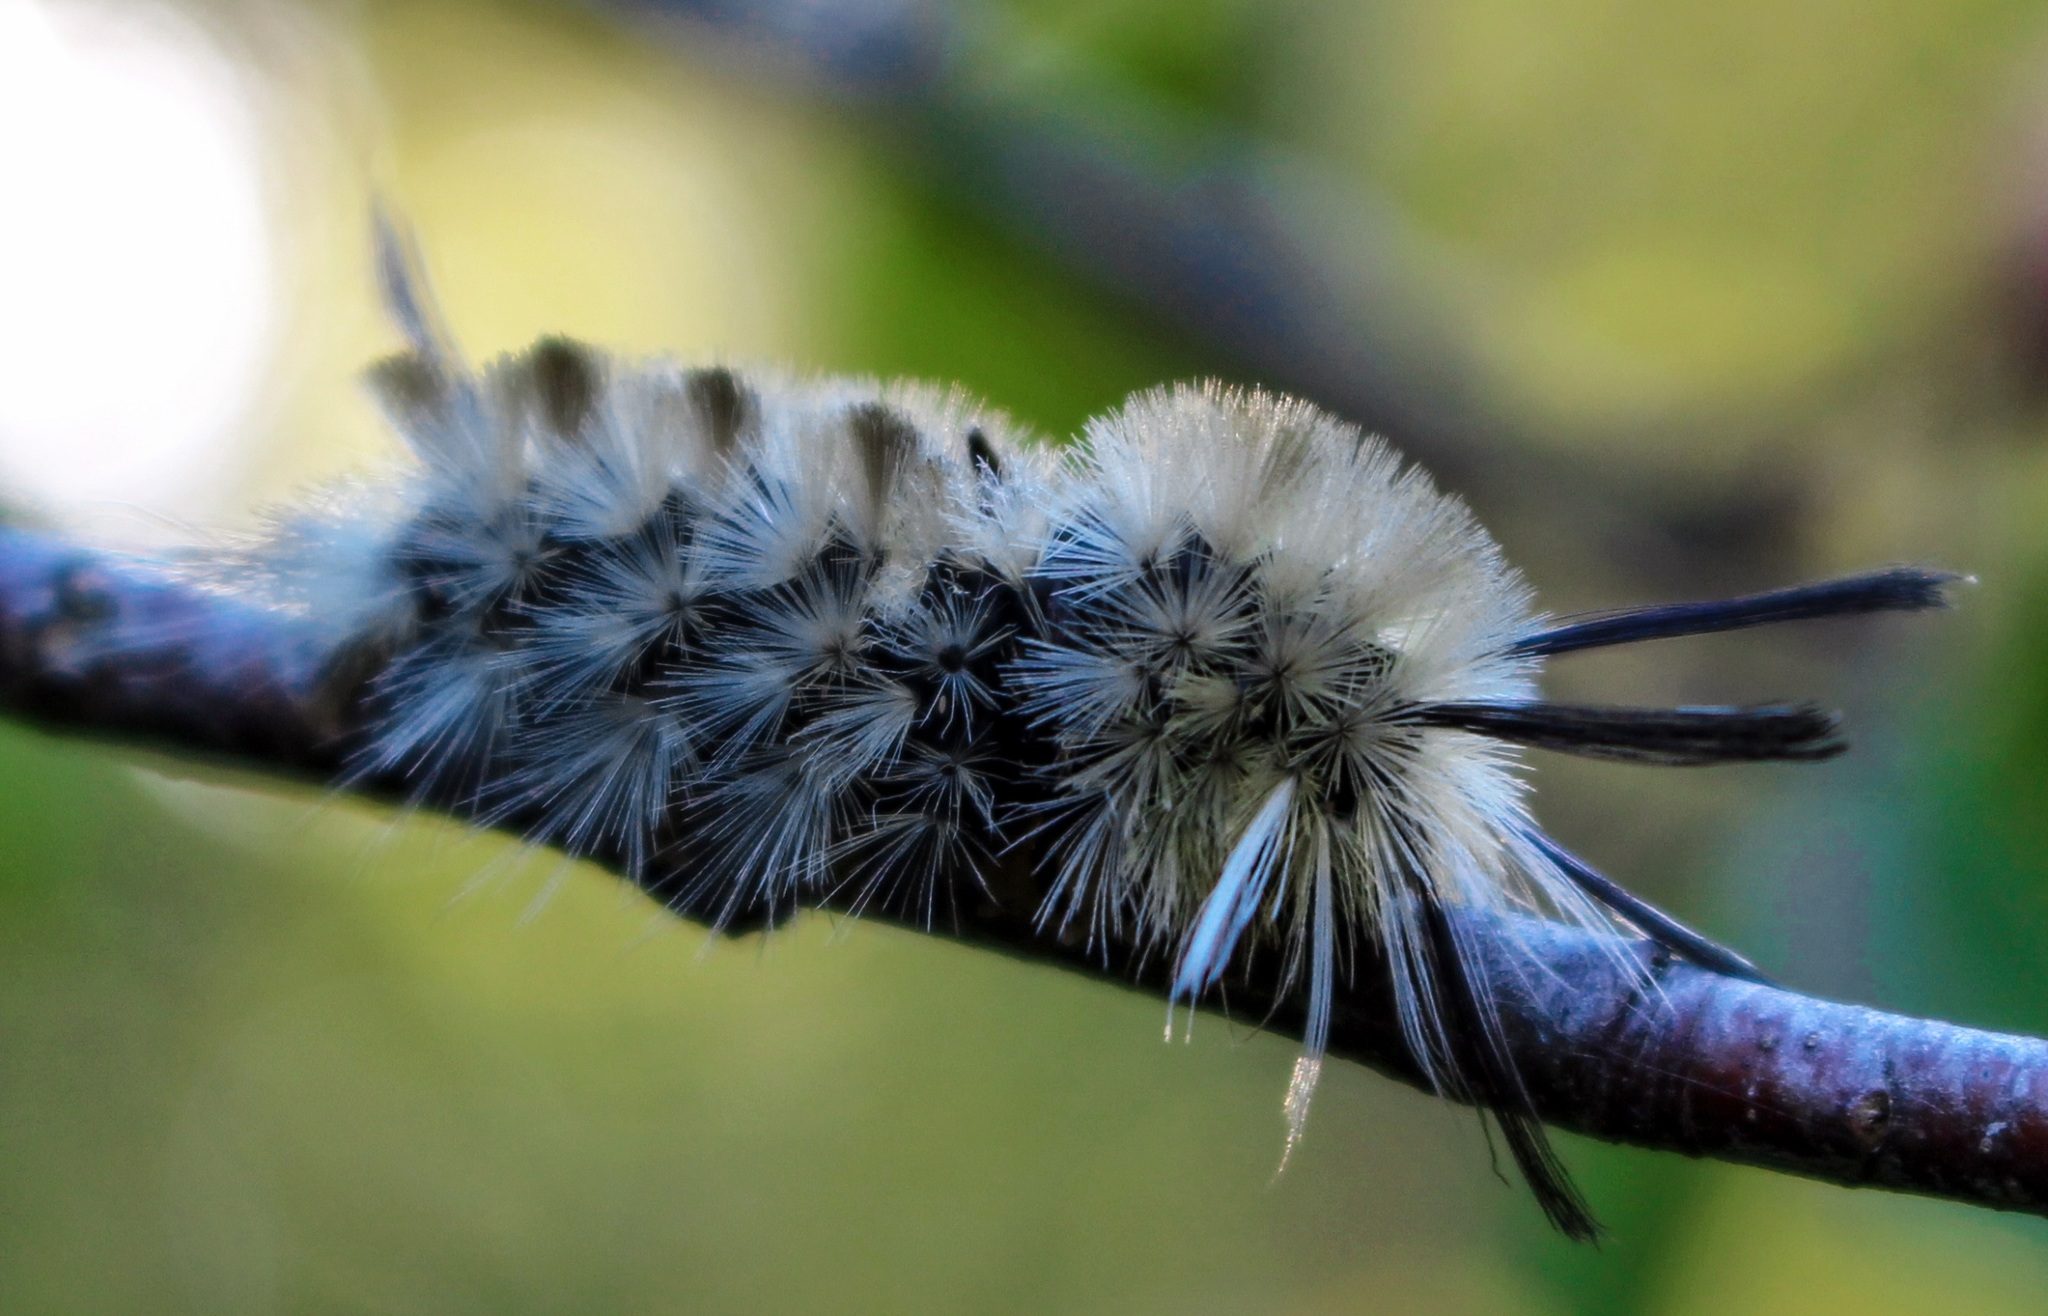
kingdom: Animalia
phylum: Arthropoda
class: Insecta
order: Lepidoptera
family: Erebidae
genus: Halysidota
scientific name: Halysidota tessellaris
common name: Banded tussock moth
